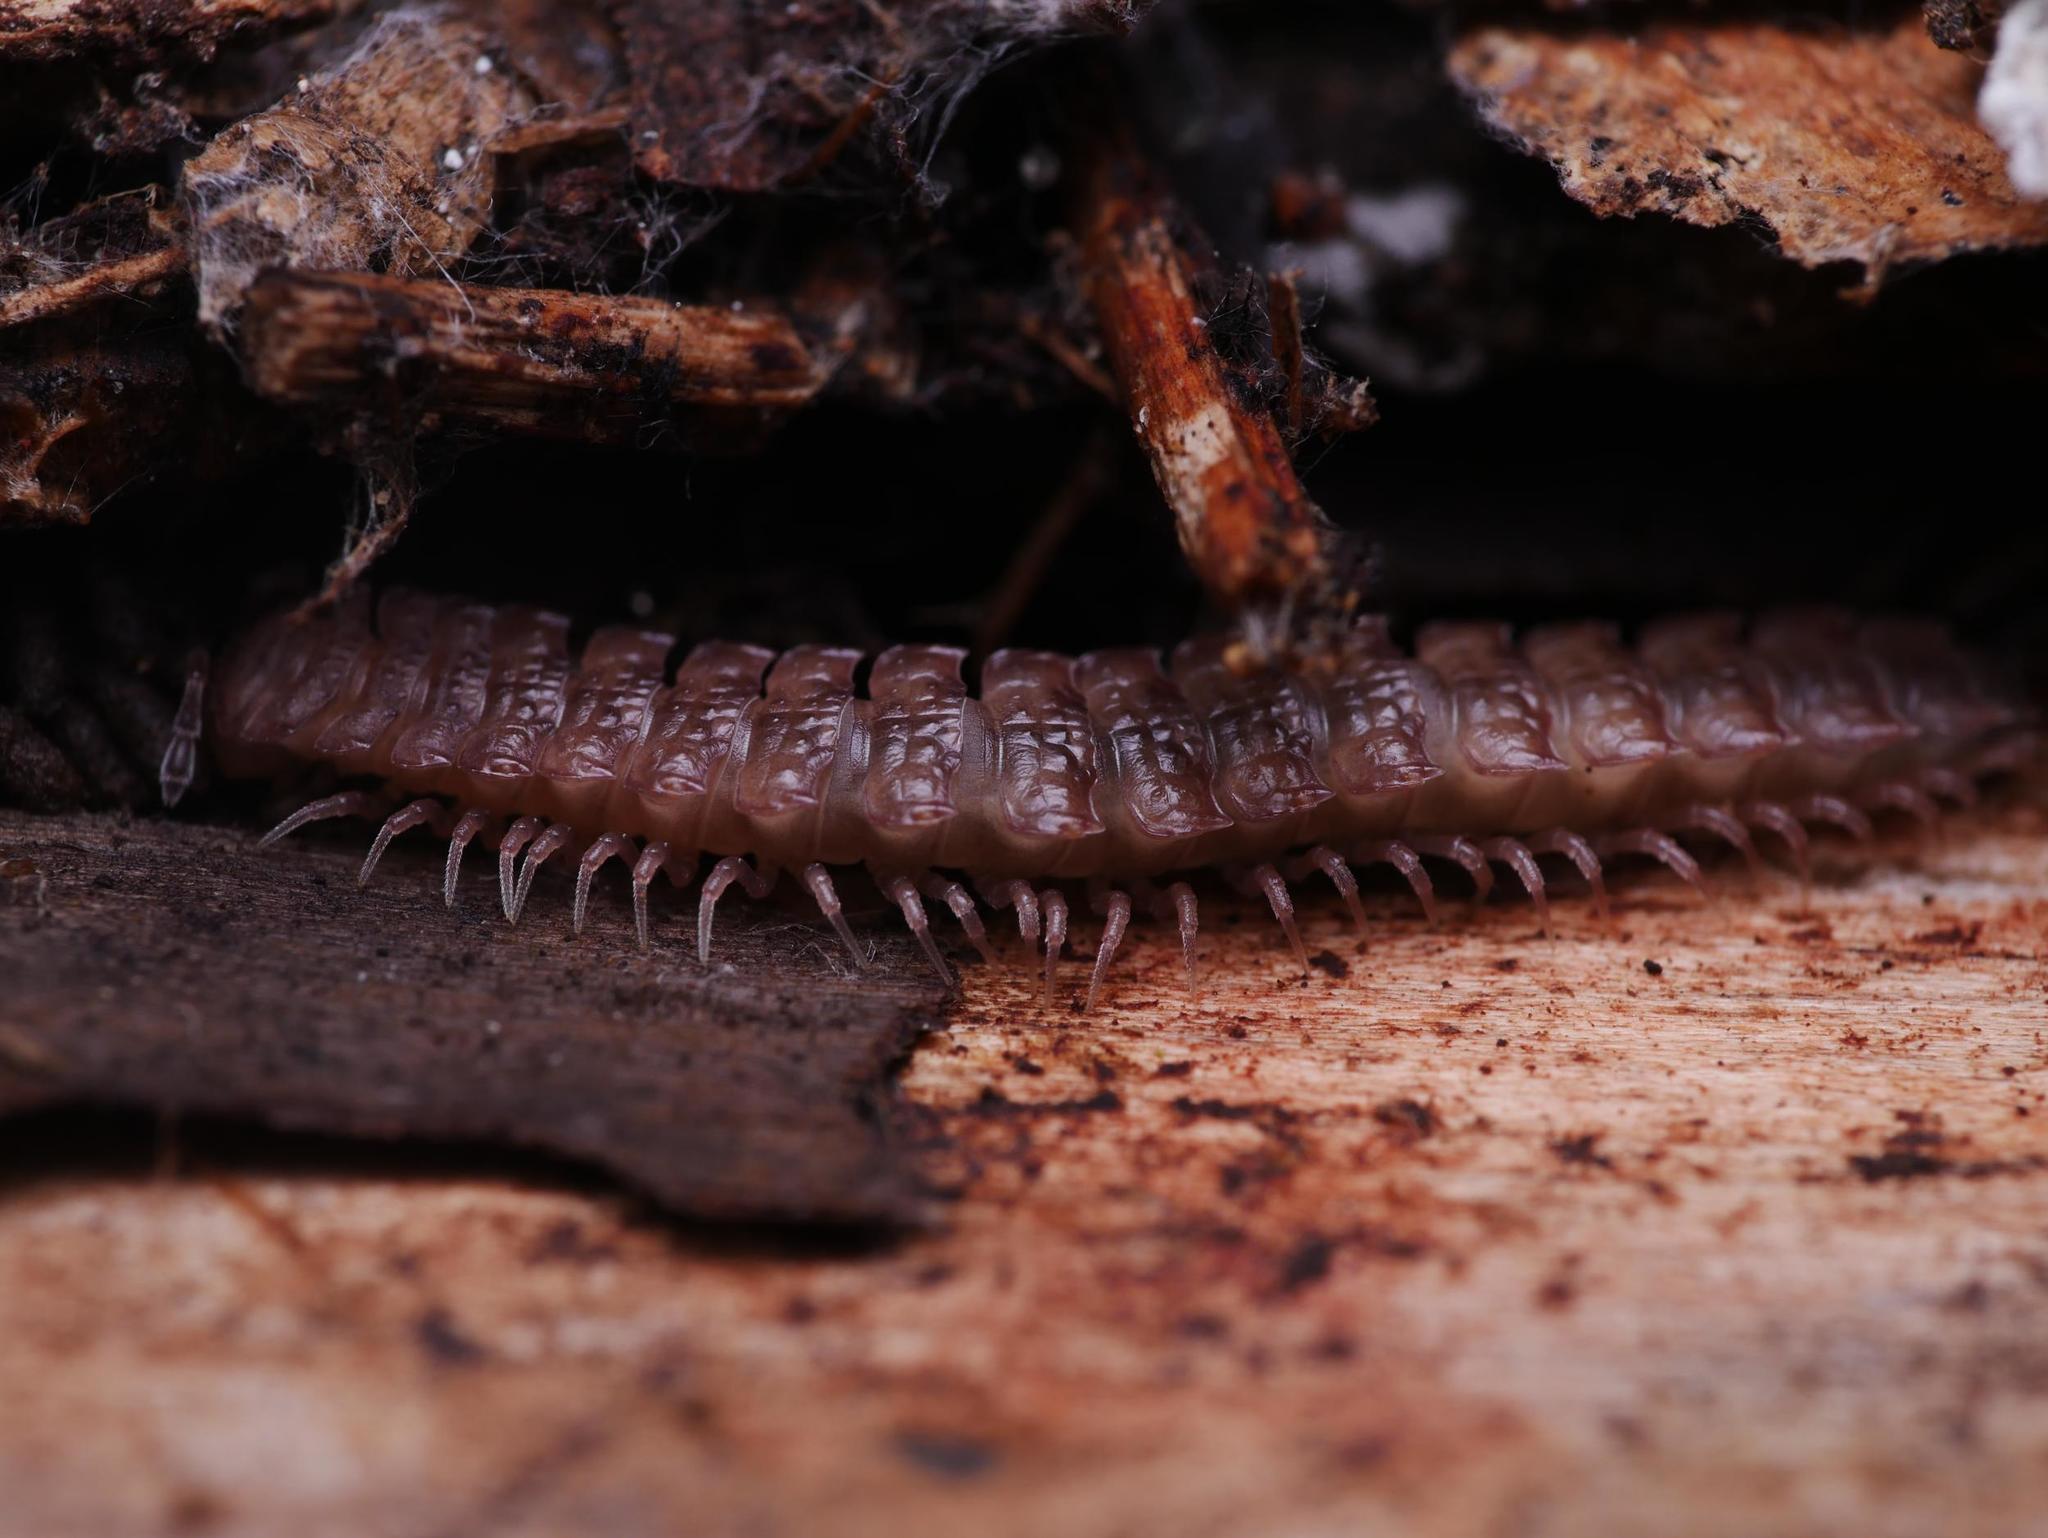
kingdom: Animalia
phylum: Arthropoda
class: Diplopoda
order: Polydesmida
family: Polydesmidae
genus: Polydesmus
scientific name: Polydesmus angustus
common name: Flat millipede
